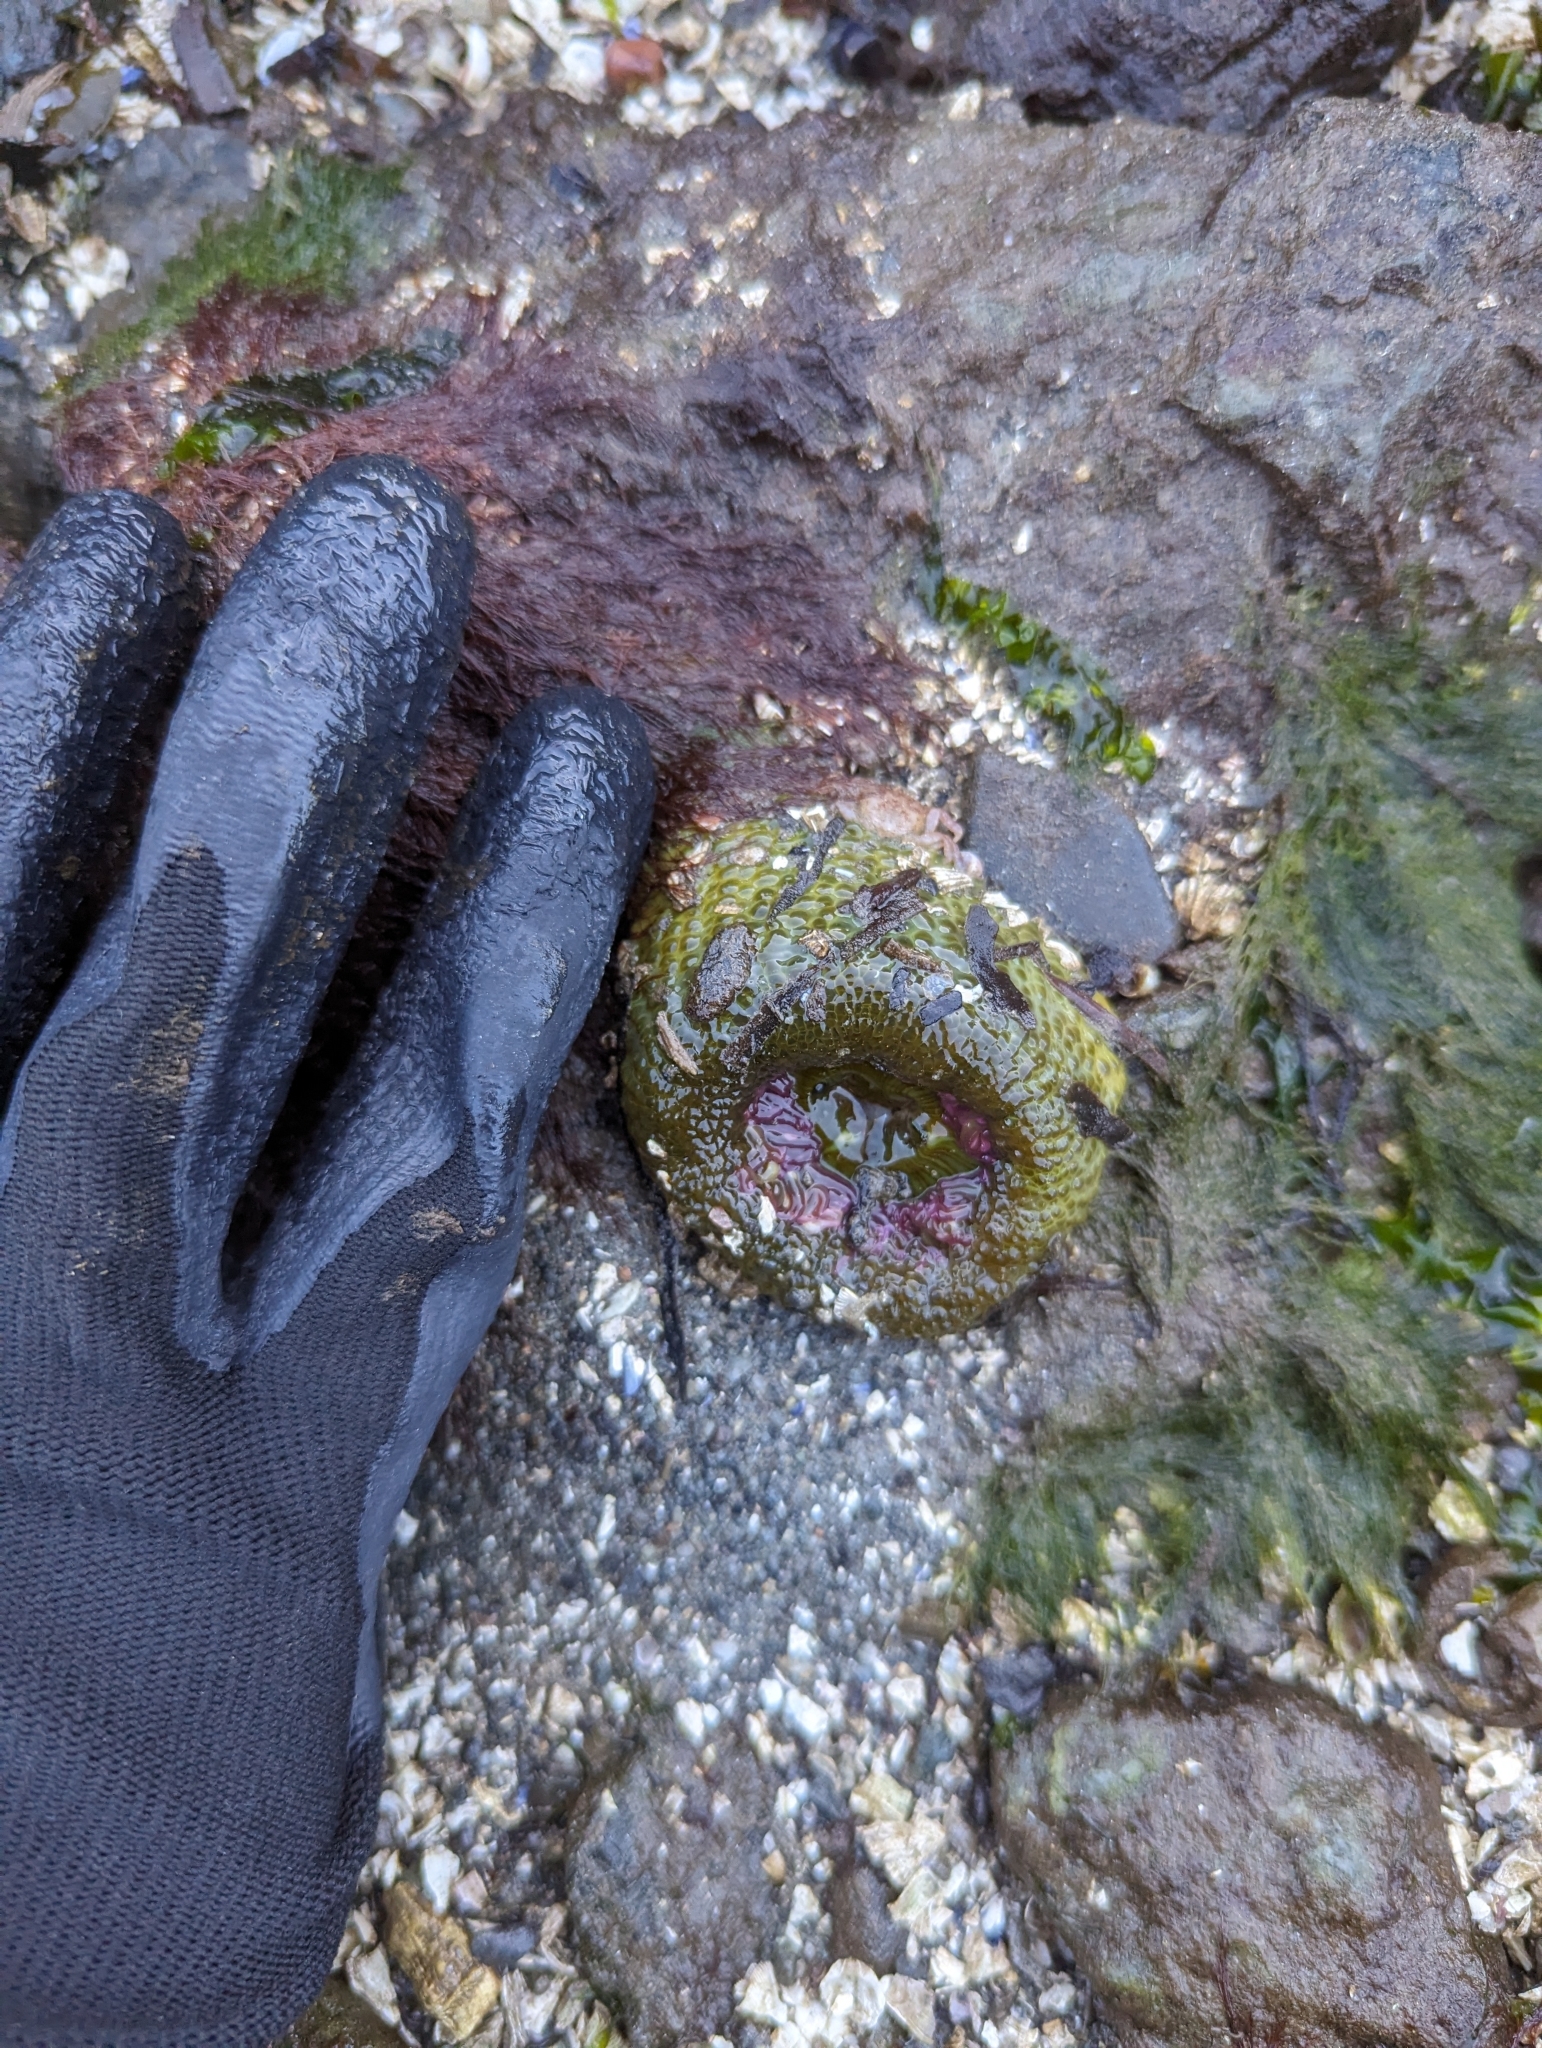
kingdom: Animalia
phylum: Cnidaria
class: Anthozoa
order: Actiniaria
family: Actiniidae
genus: Anthopleura
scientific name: Anthopleura elegantissima
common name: Clonal anemone
